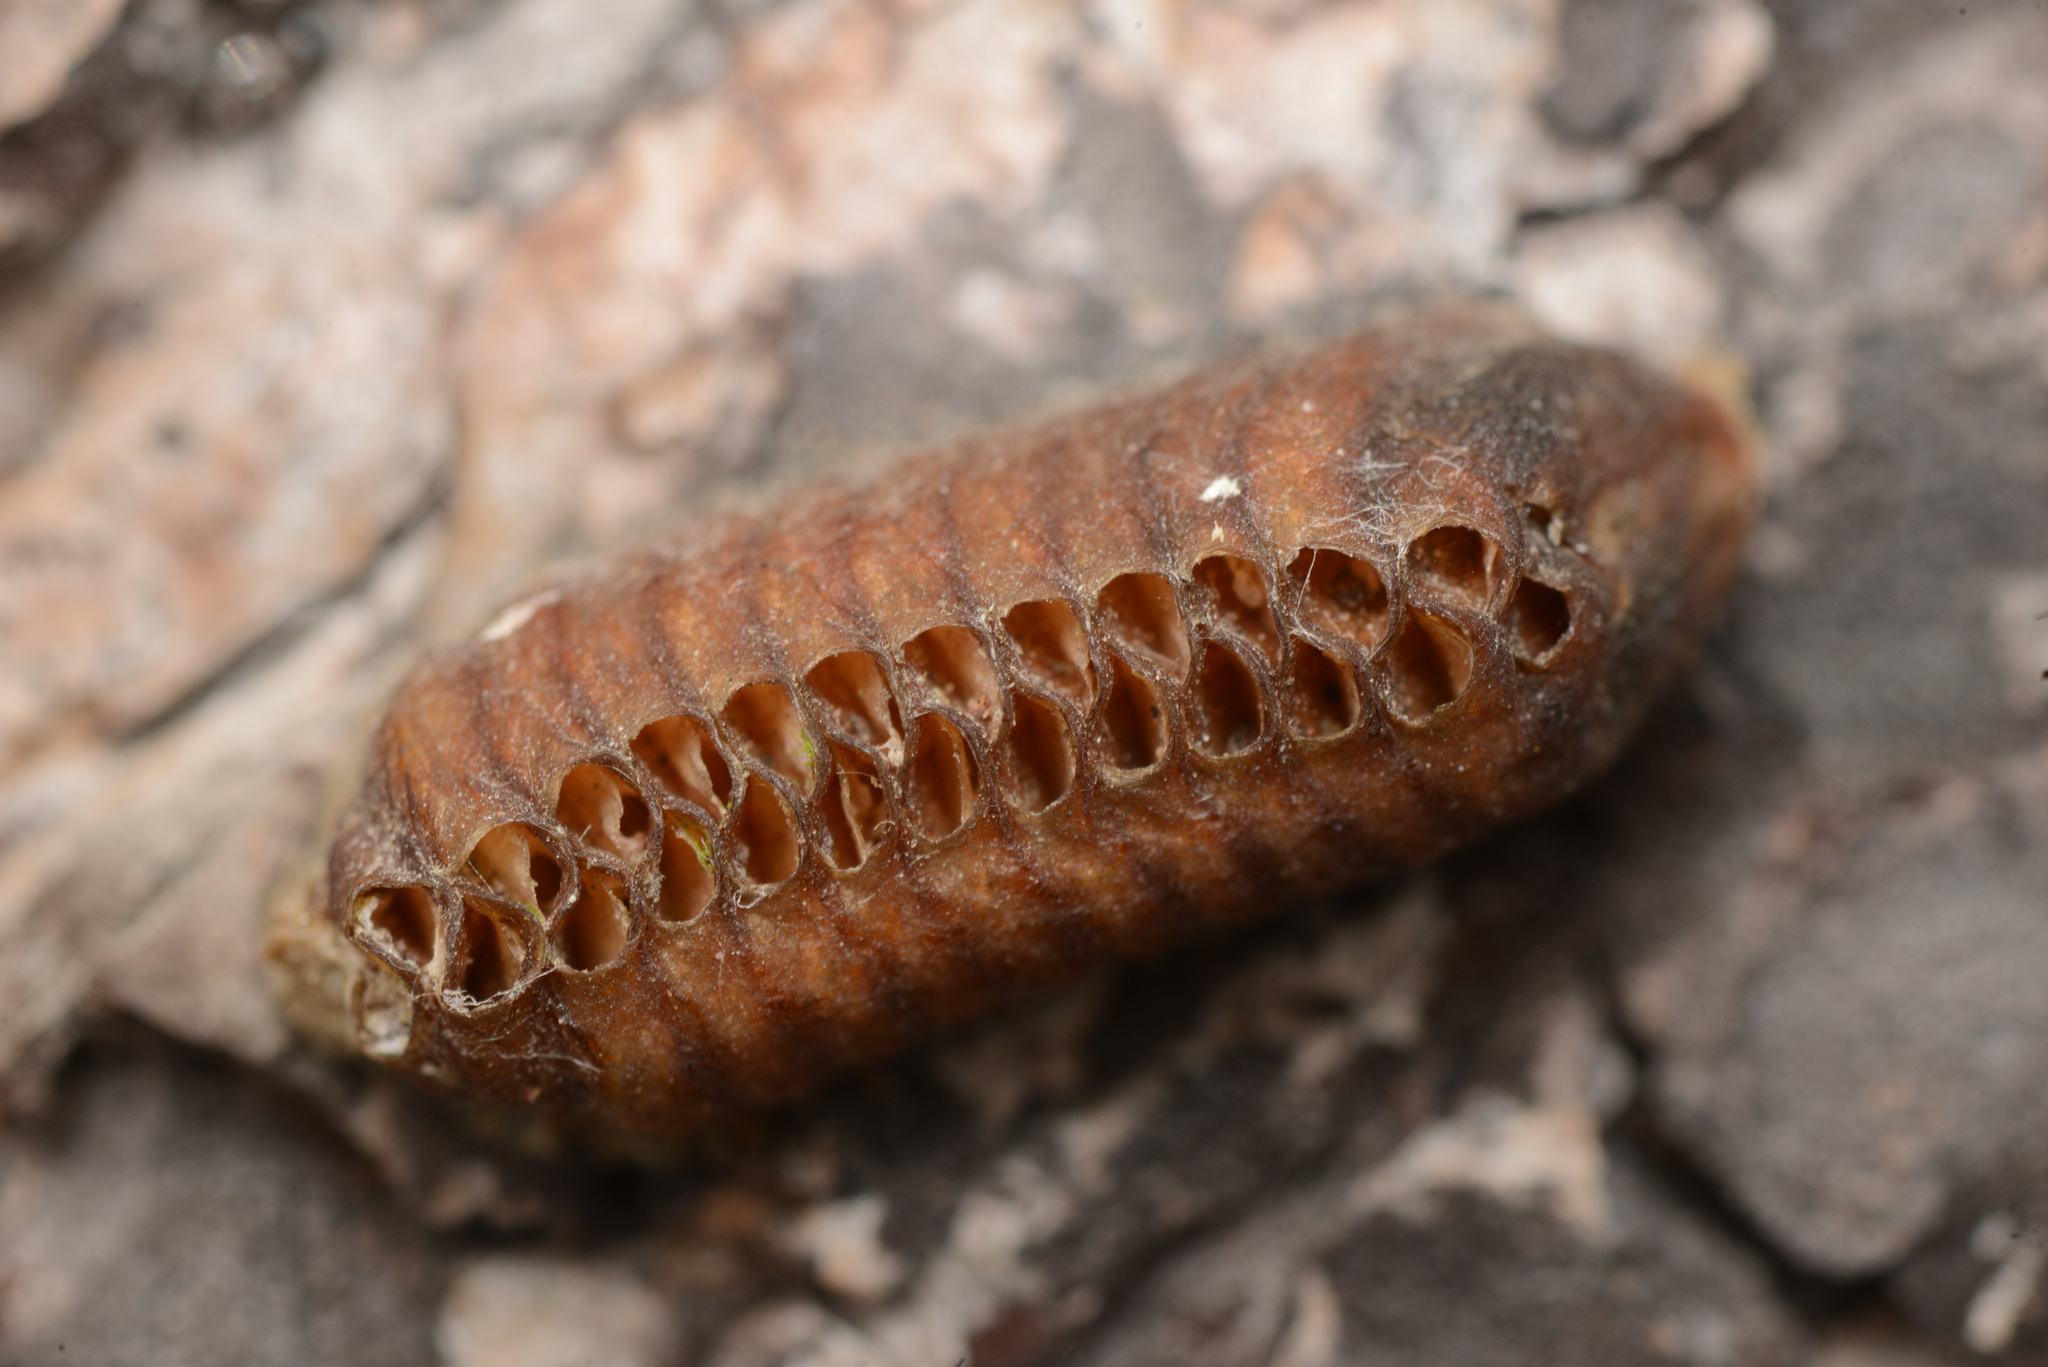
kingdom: Animalia
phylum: Arthropoda
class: Insecta
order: Mantodea
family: Mantidae
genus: Orthodera
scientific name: Orthodera novaezealandiae
